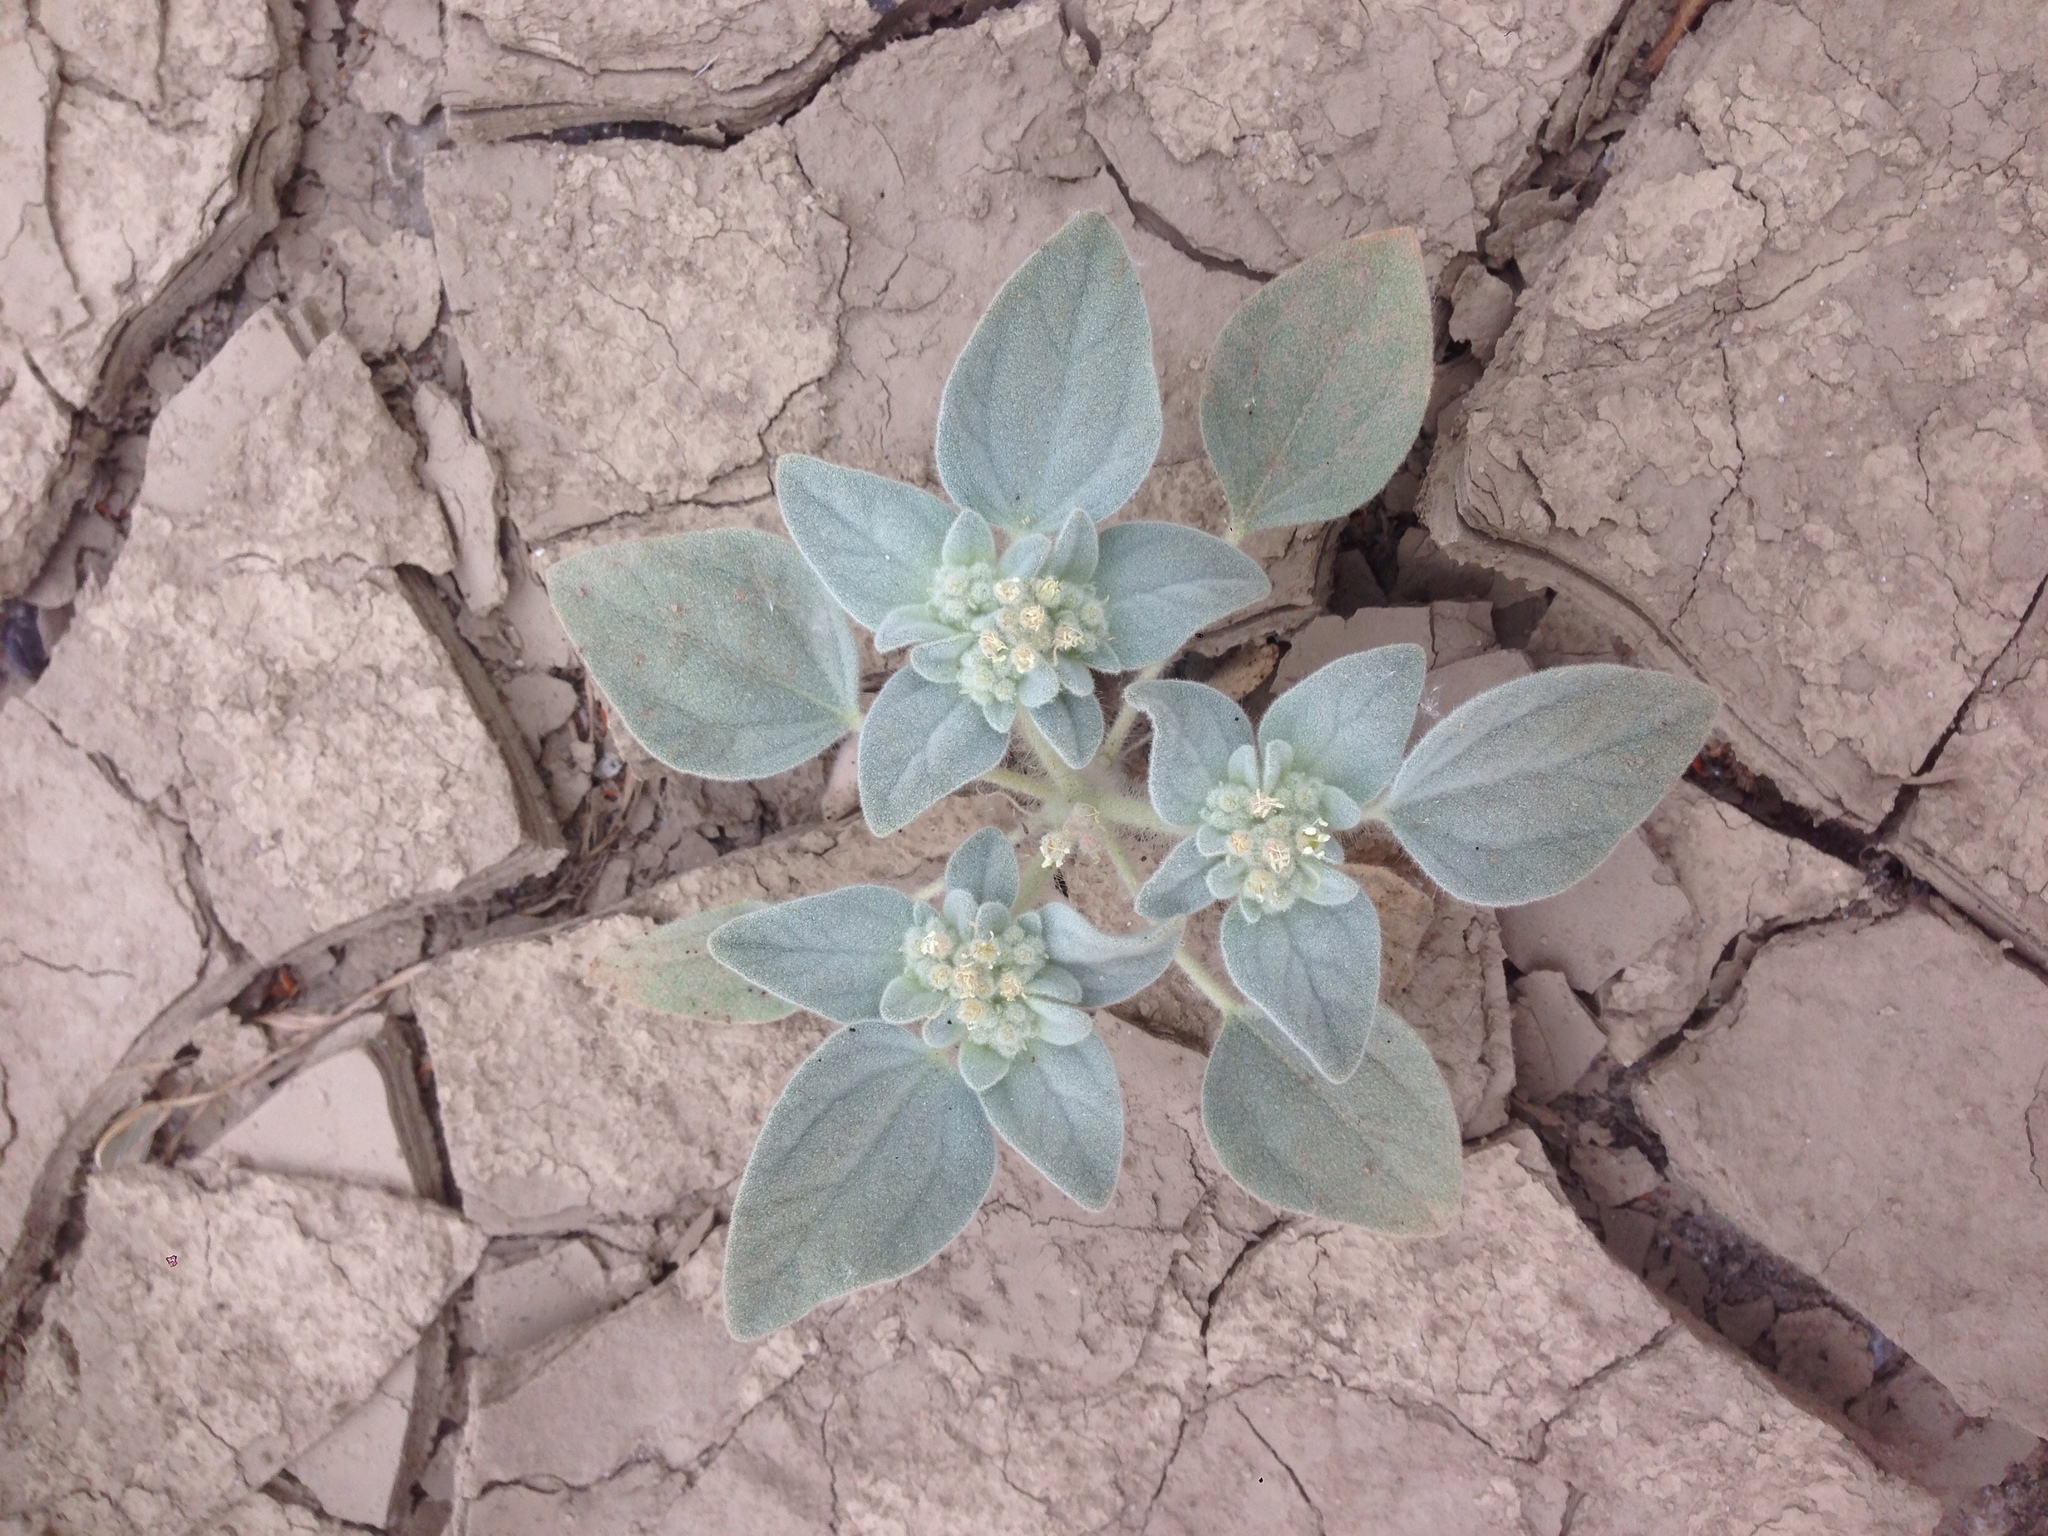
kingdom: Plantae
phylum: Tracheophyta
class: Magnoliopsida
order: Malpighiales
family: Euphorbiaceae
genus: Croton
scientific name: Croton setiger
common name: Dove weed
